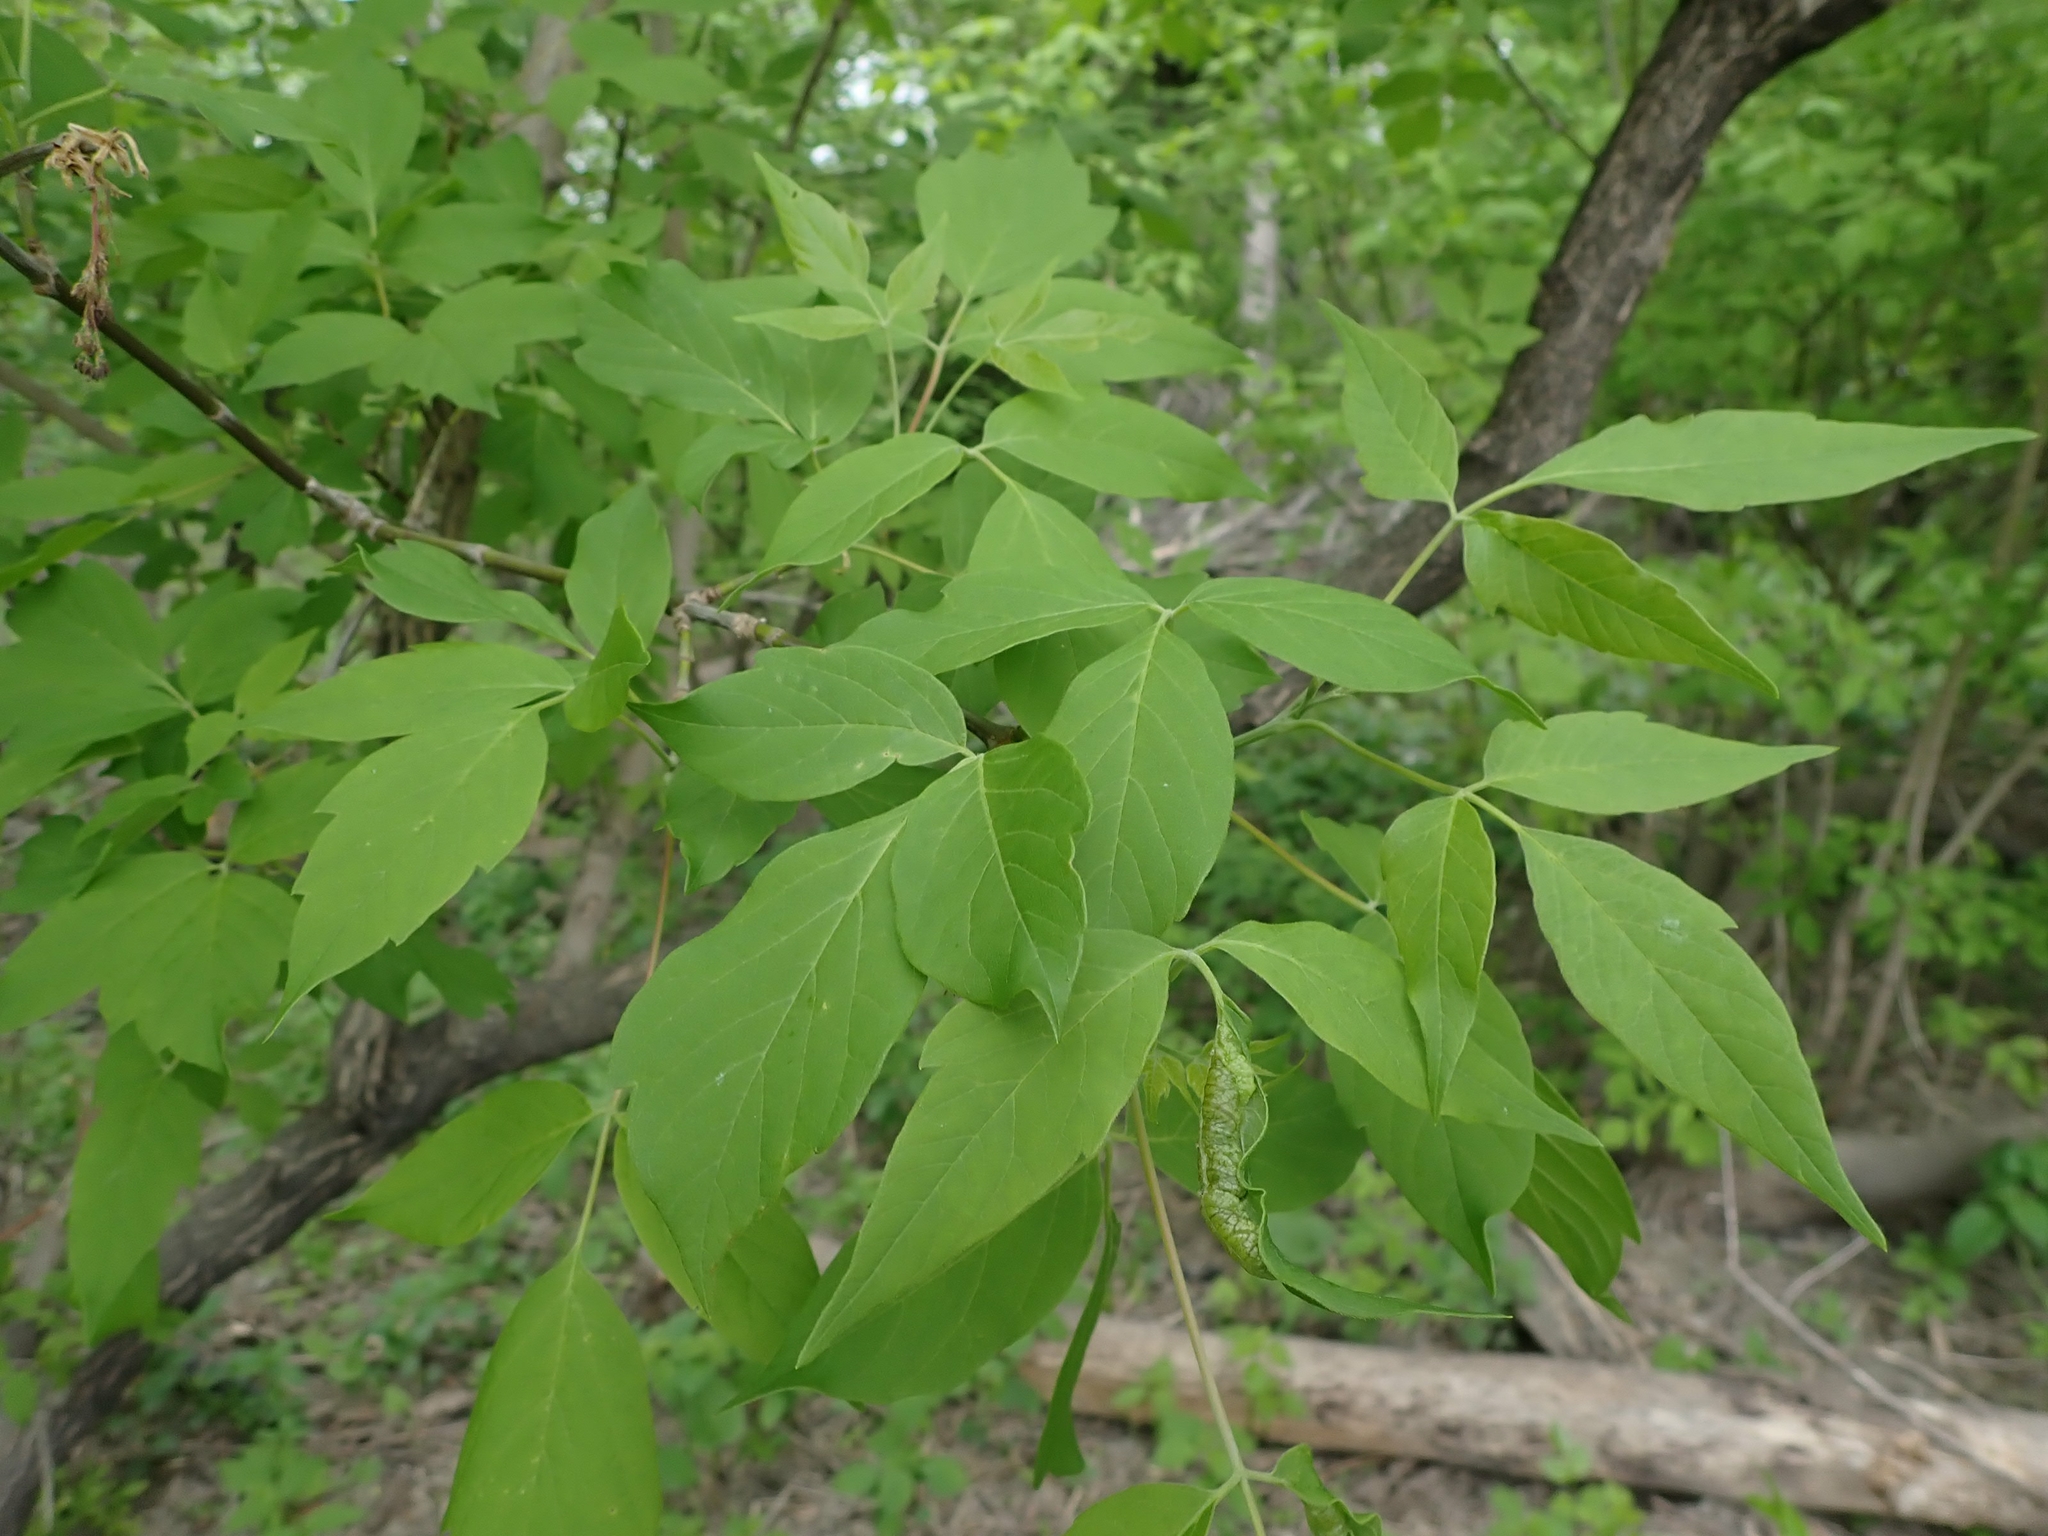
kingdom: Plantae
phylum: Tracheophyta
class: Magnoliopsida
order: Sapindales
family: Sapindaceae
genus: Acer
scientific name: Acer negundo
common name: Ashleaf maple
